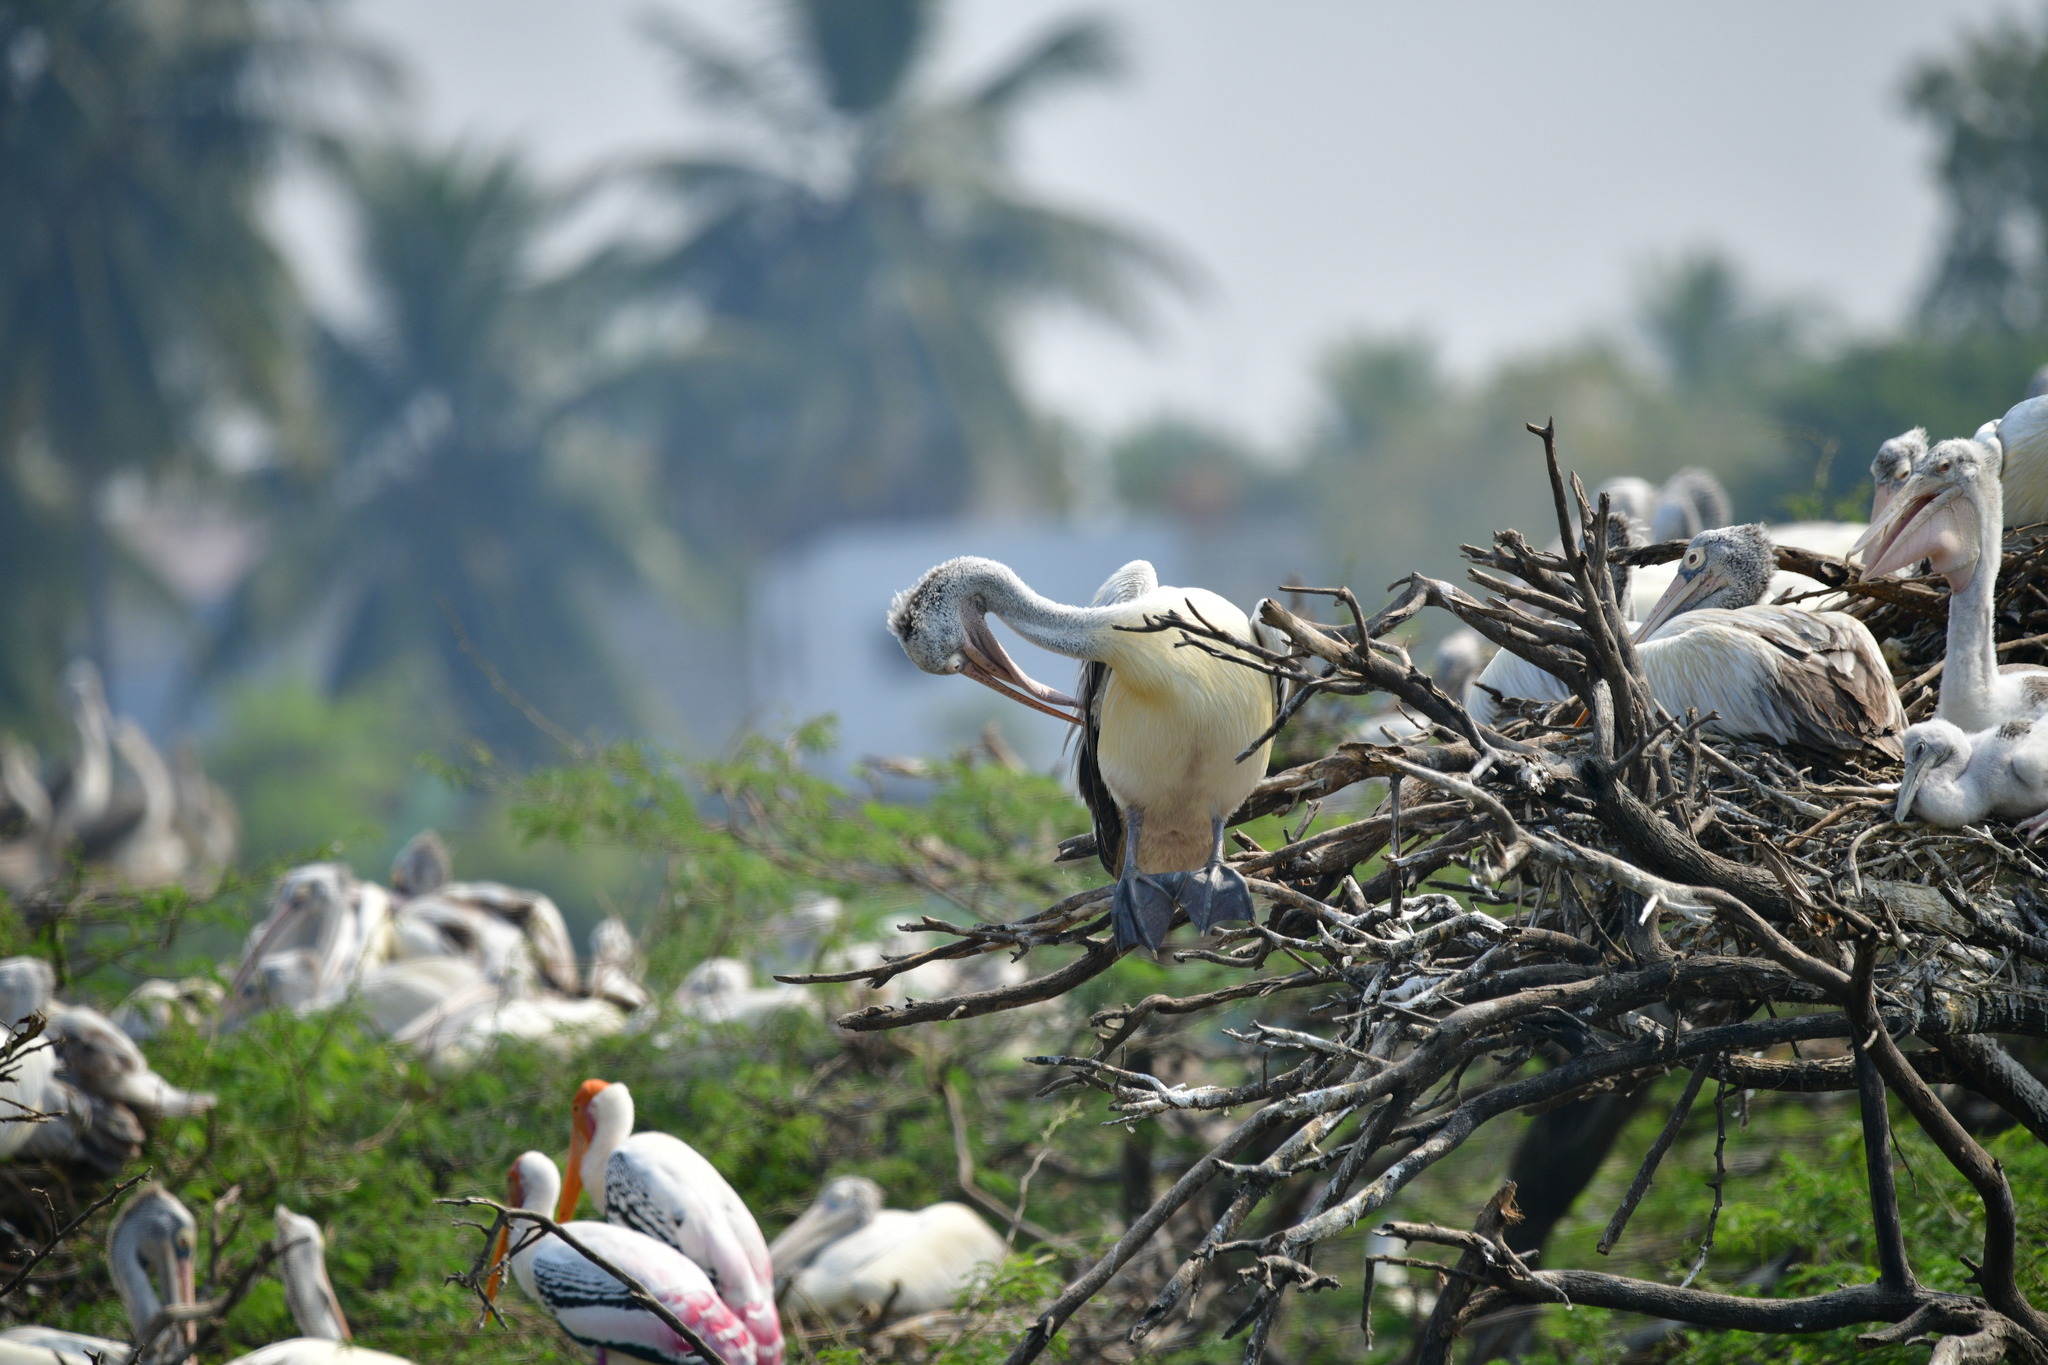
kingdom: Animalia
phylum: Chordata
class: Aves
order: Pelecaniformes
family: Pelecanidae
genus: Pelecanus
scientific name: Pelecanus philippensis
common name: Spot-billed pelican
